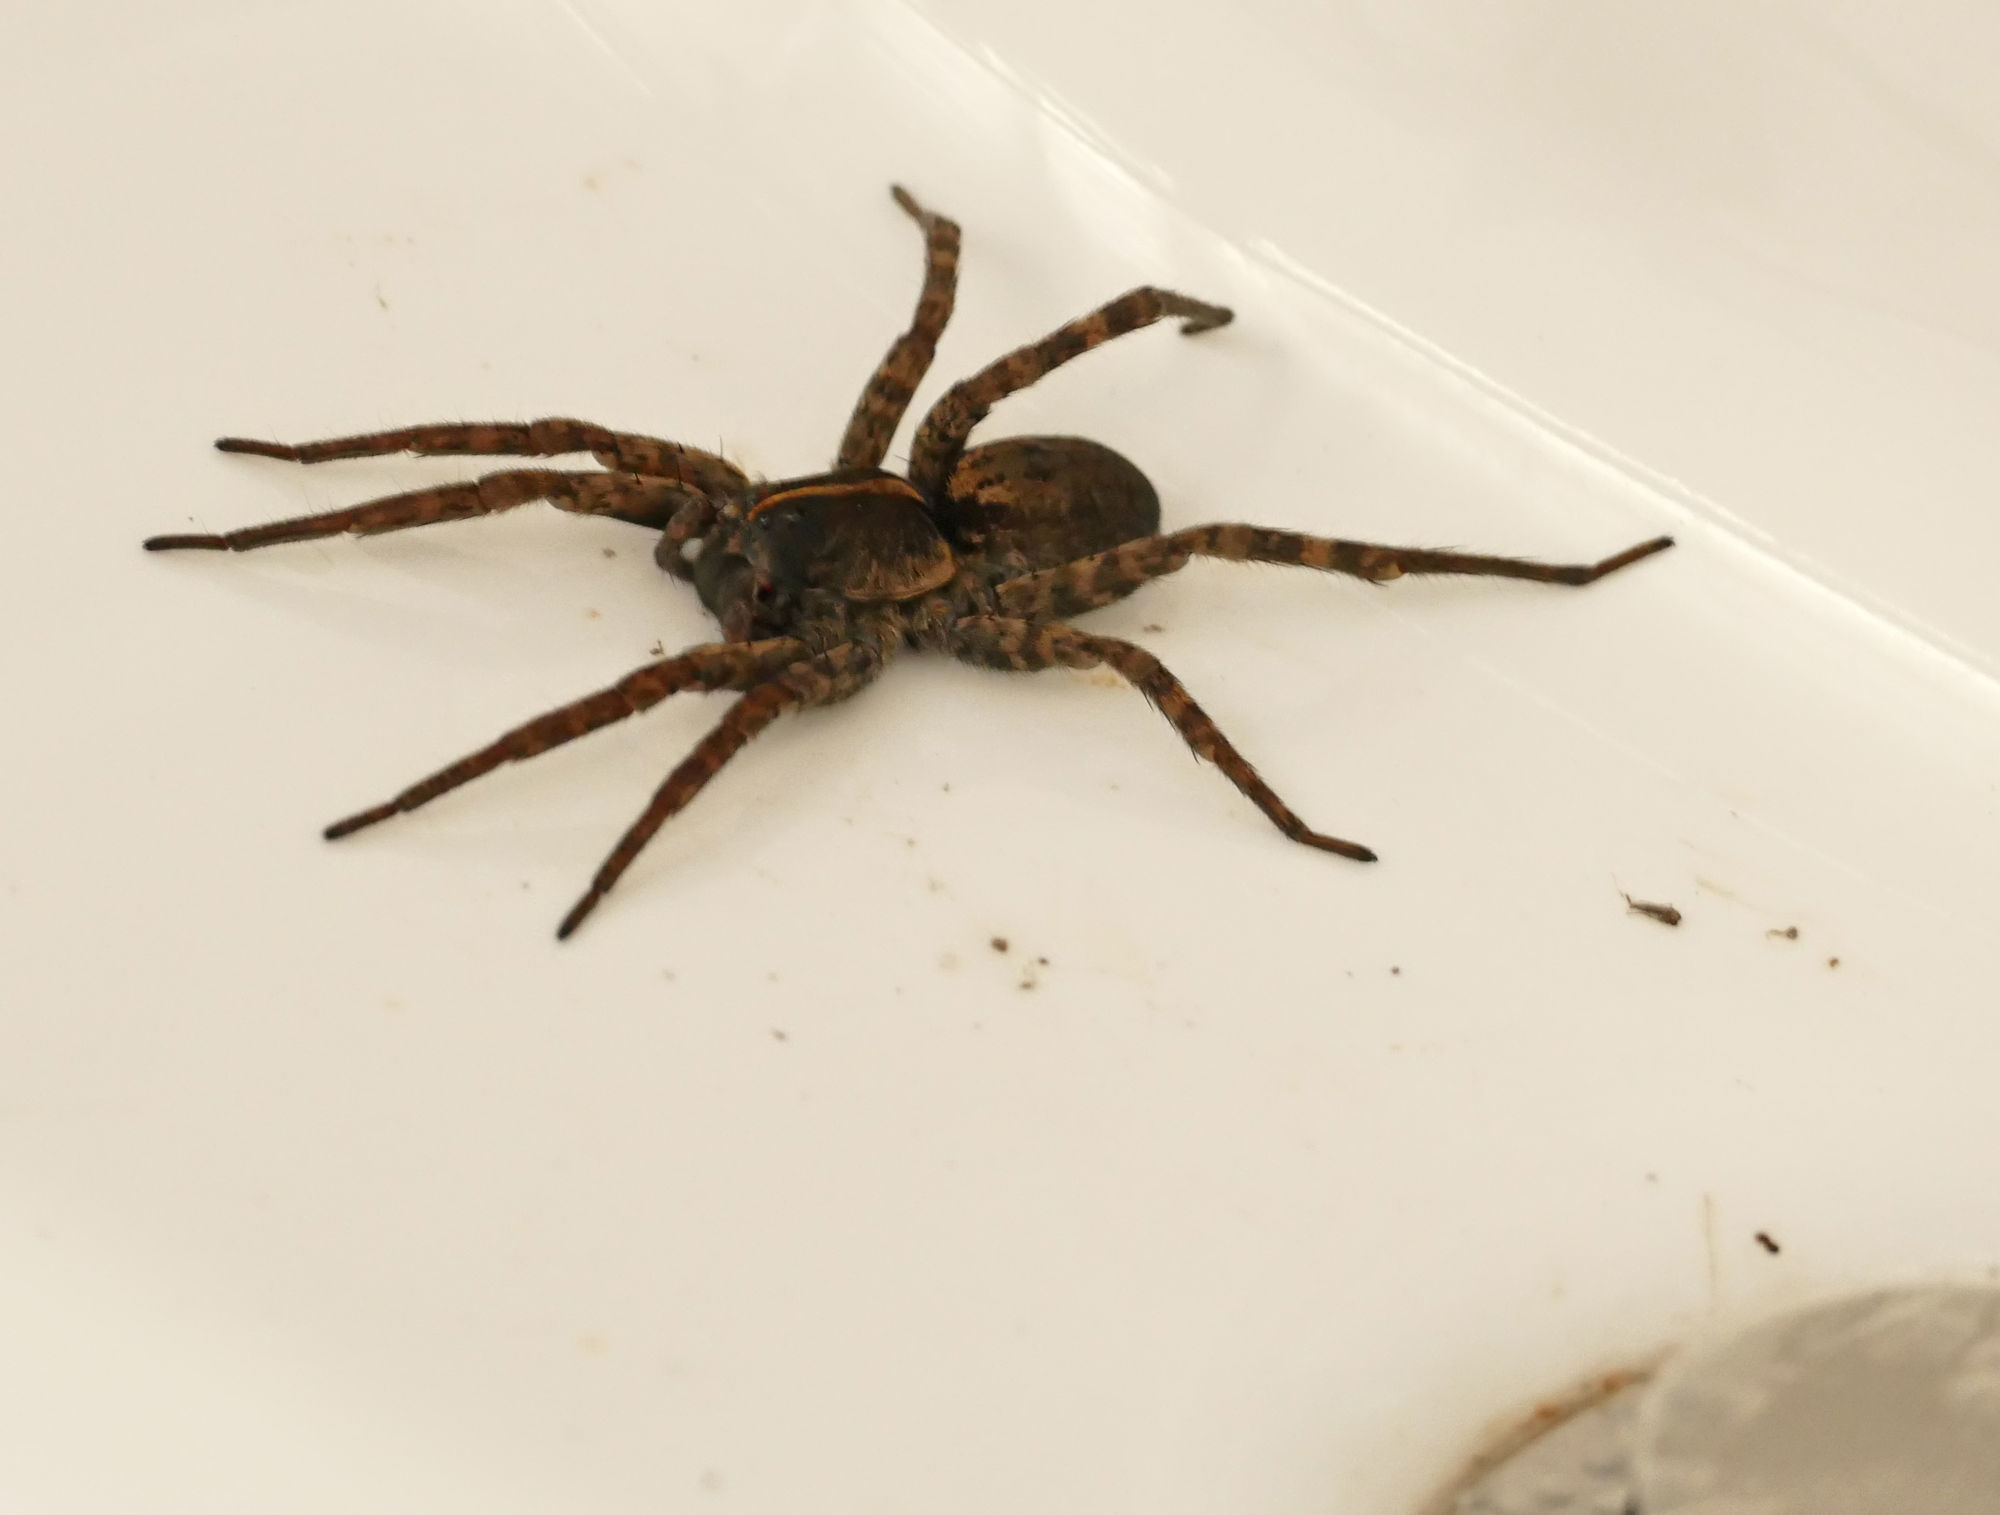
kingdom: Animalia
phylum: Arthropoda
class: Arachnida
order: Araneae
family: Lycosidae
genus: Tigrosa
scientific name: Tigrosa georgicola
